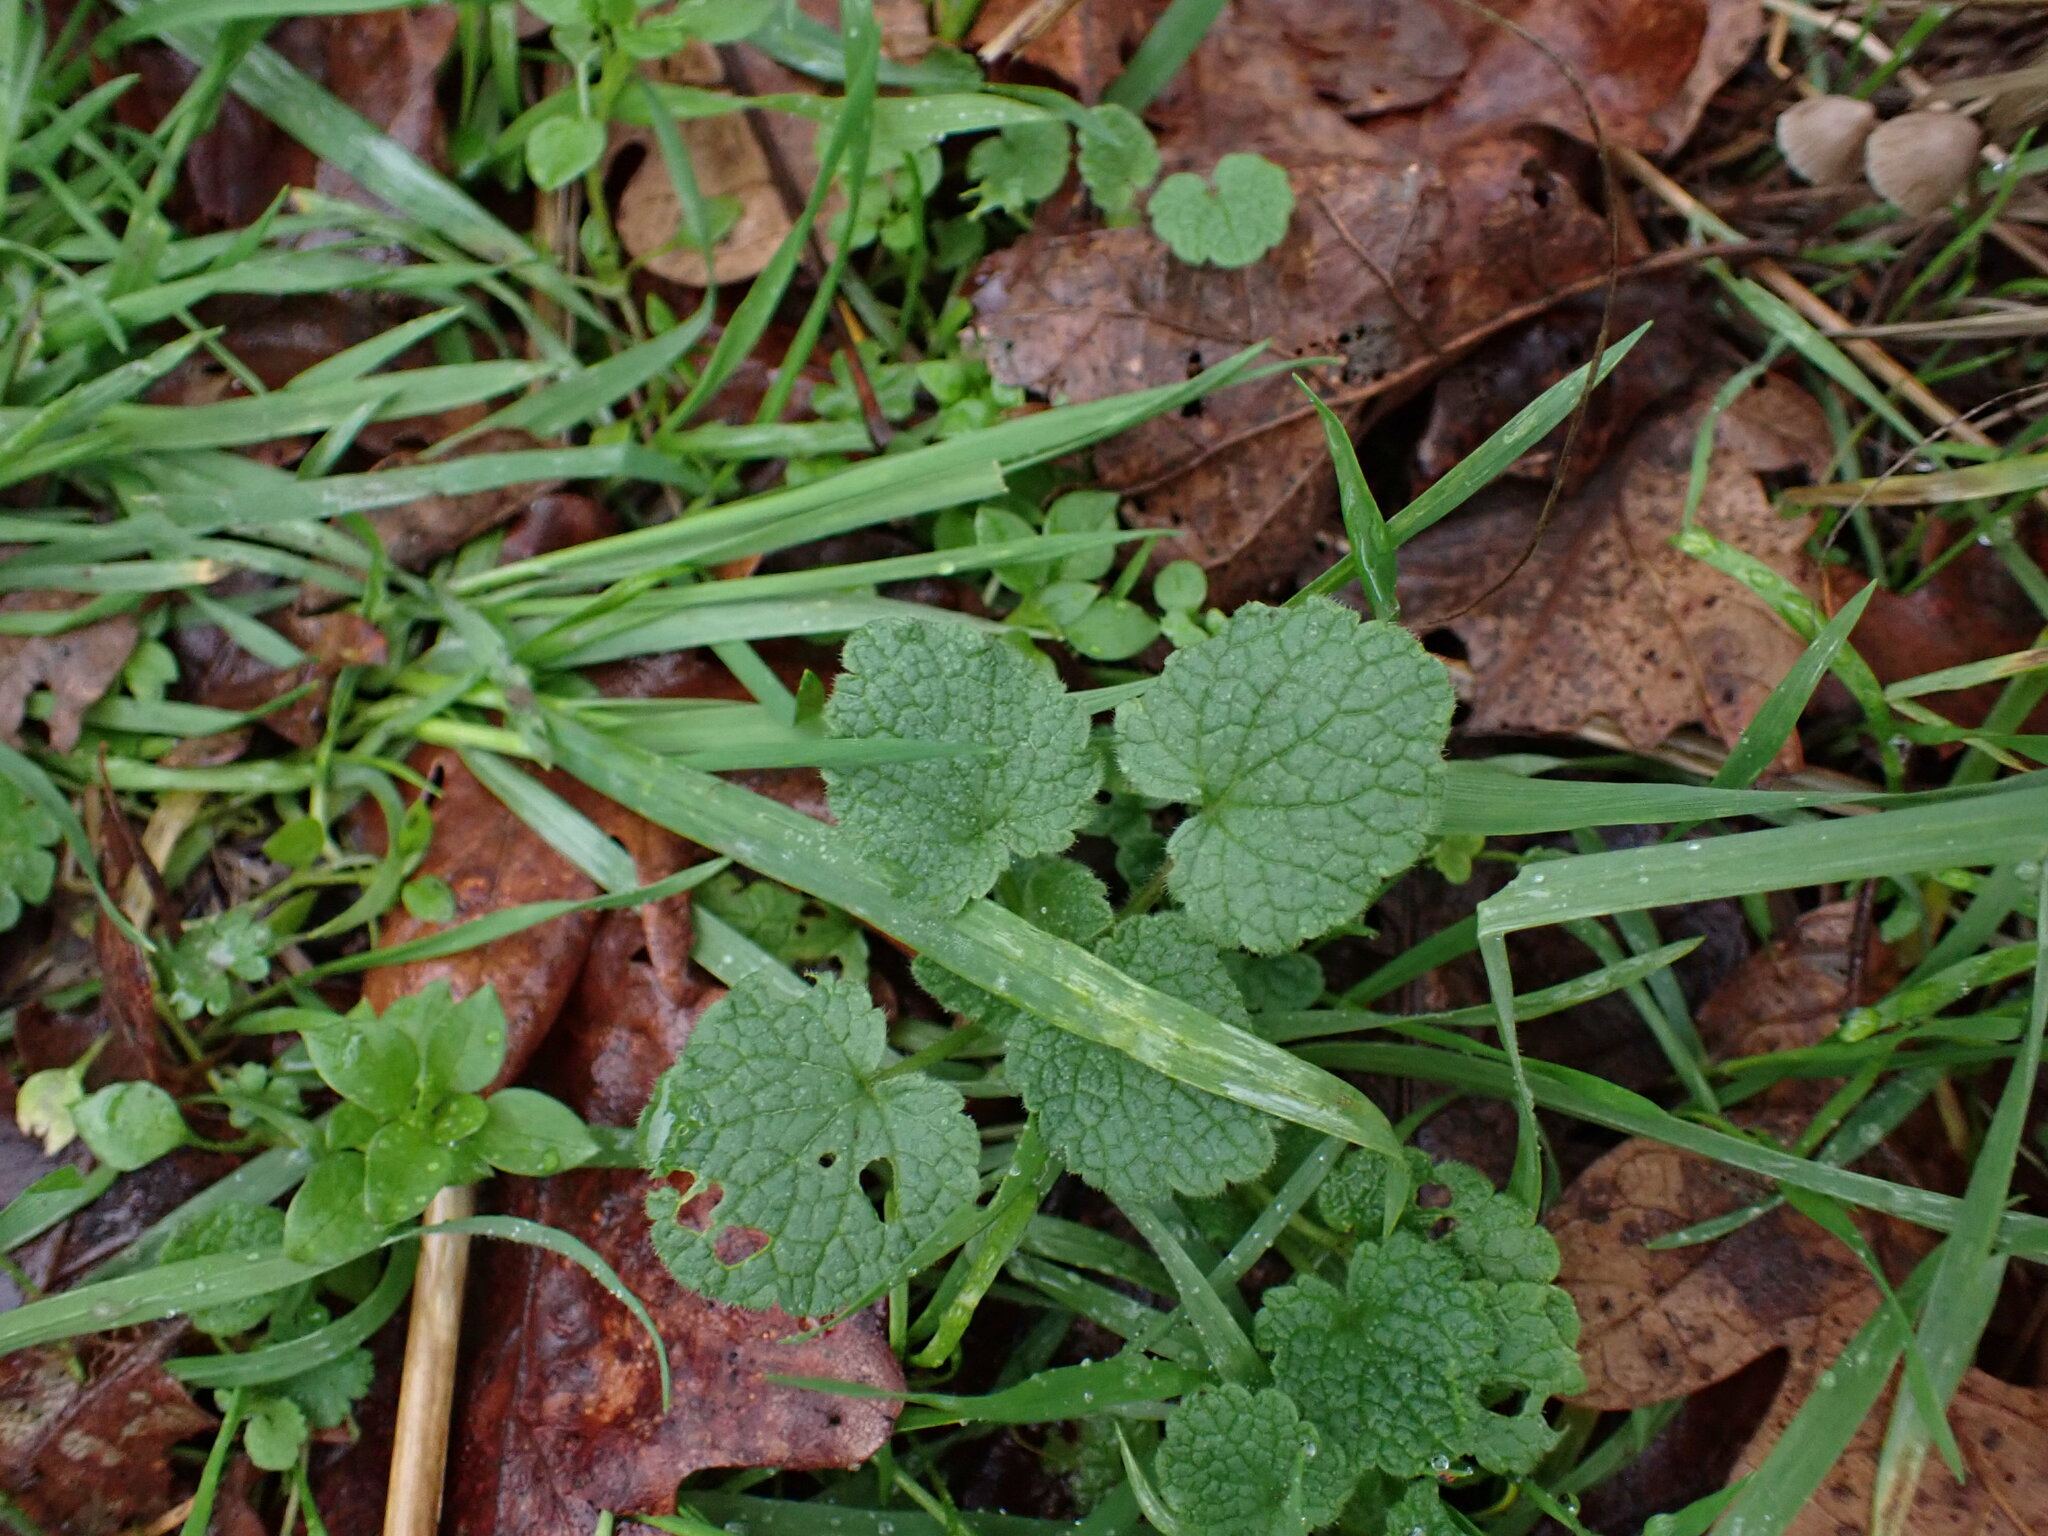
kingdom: Plantae
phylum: Tracheophyta
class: Magnoliopsida
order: Lamiales
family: Lamiaceae
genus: Lamium
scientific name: Lamium purpureum
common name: Red dead-nettle
